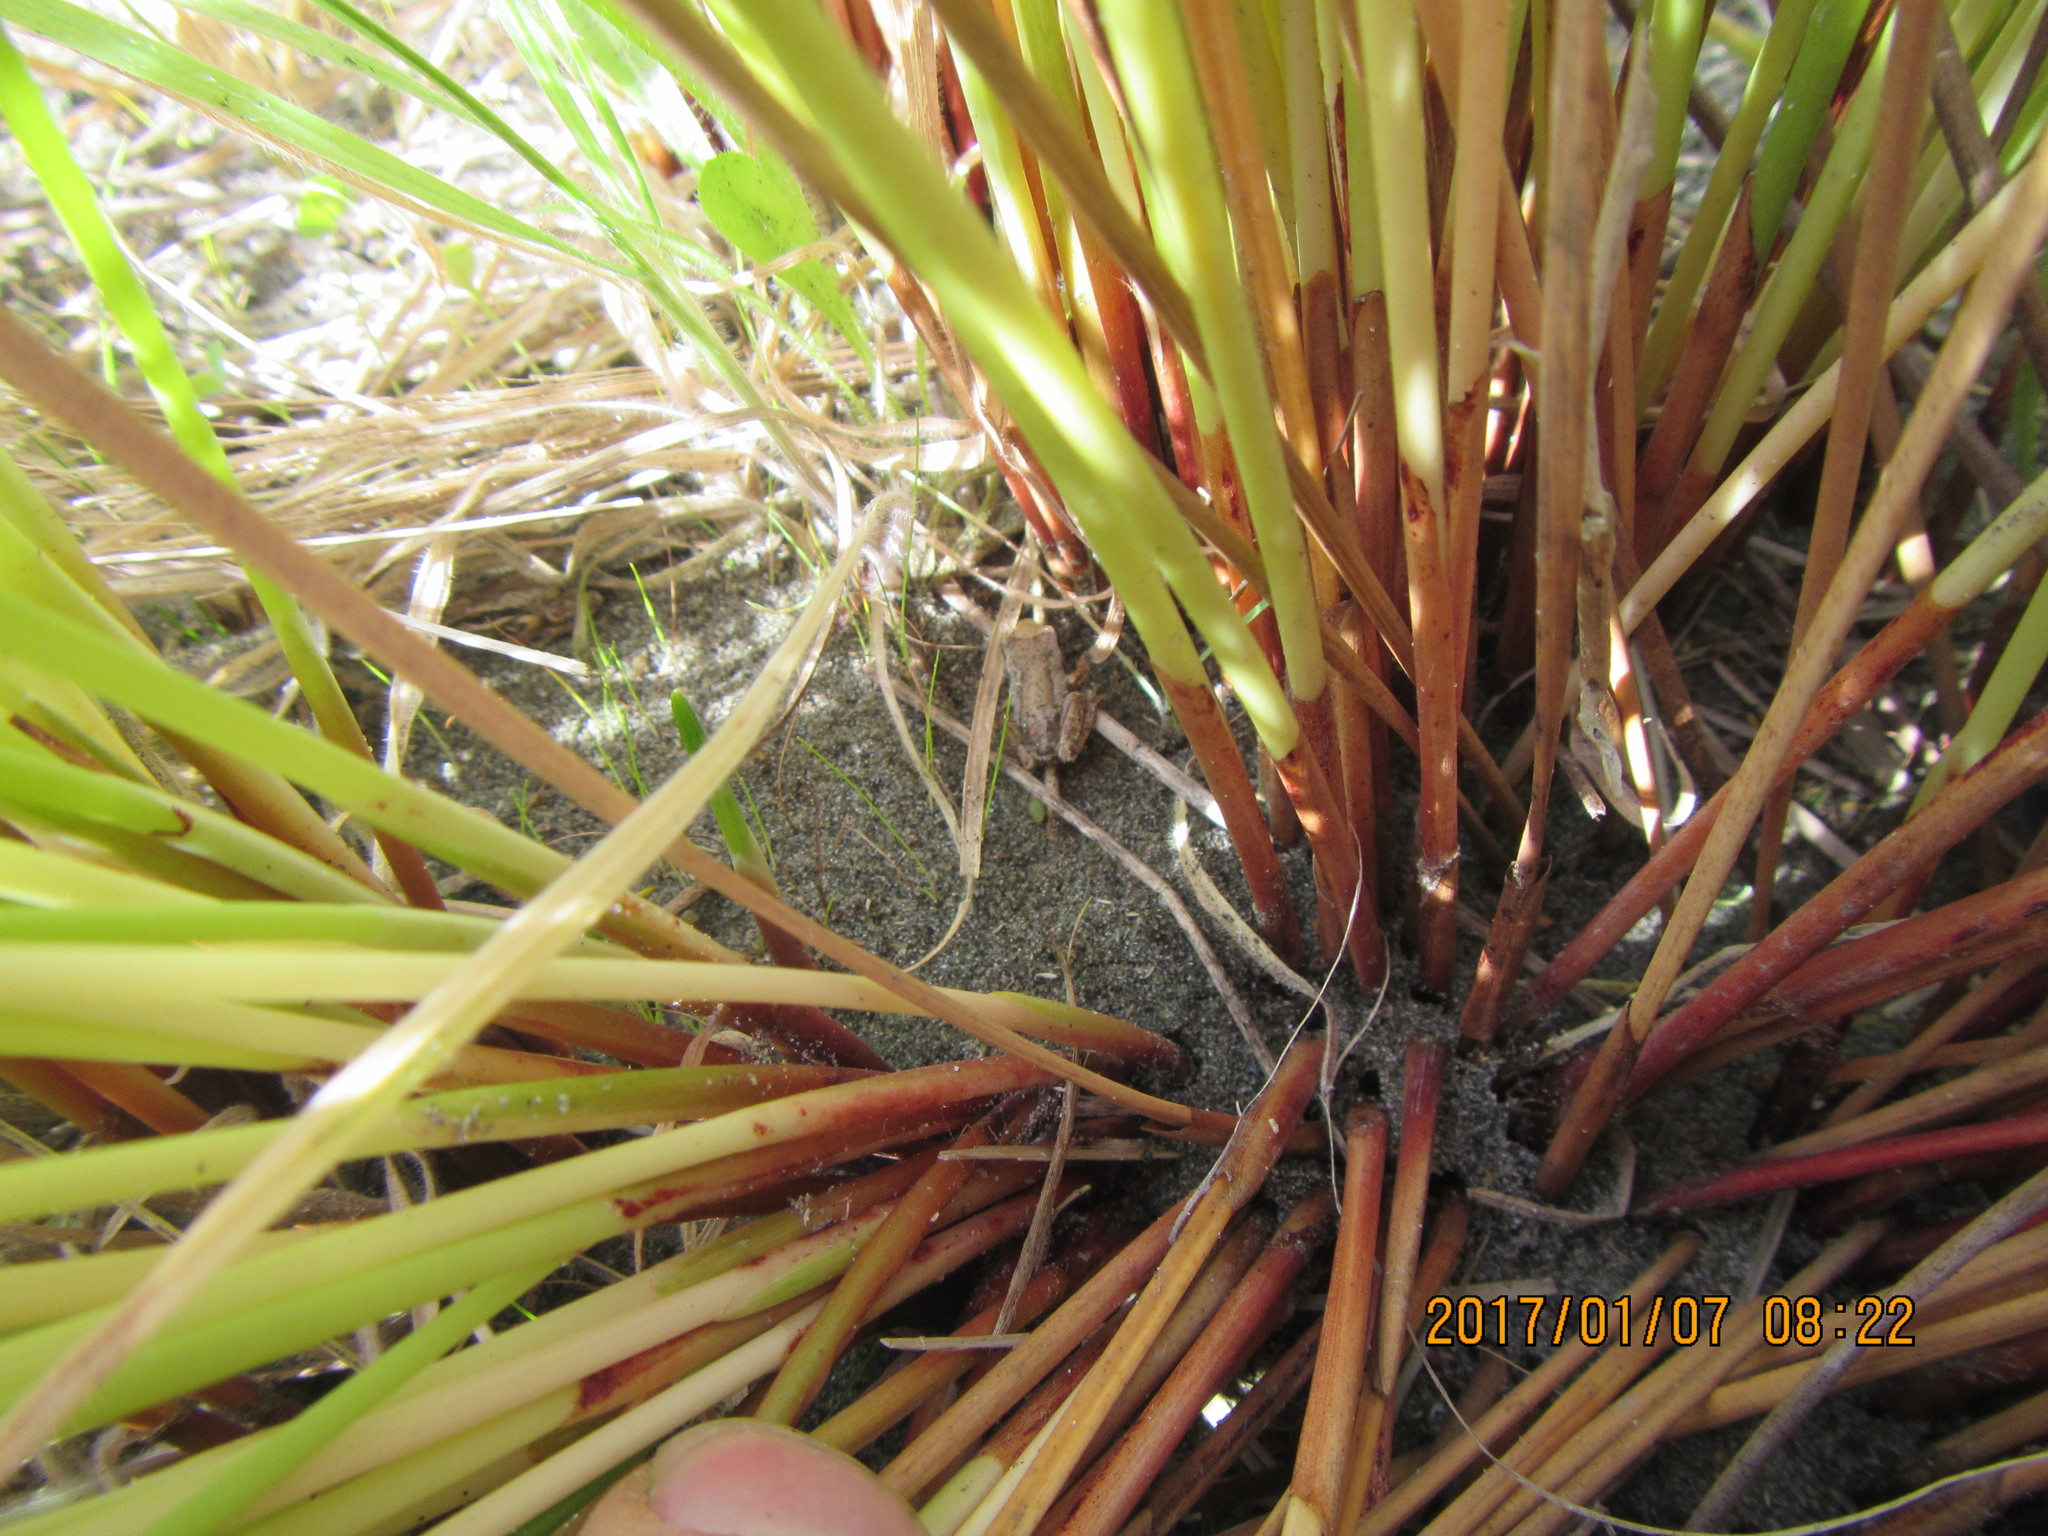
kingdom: Animalia
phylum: Chordata
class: Amphibia
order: Anura
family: Pelodryadidae
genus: Litoria
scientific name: Litoria ewingii
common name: Southern brown tree frog
